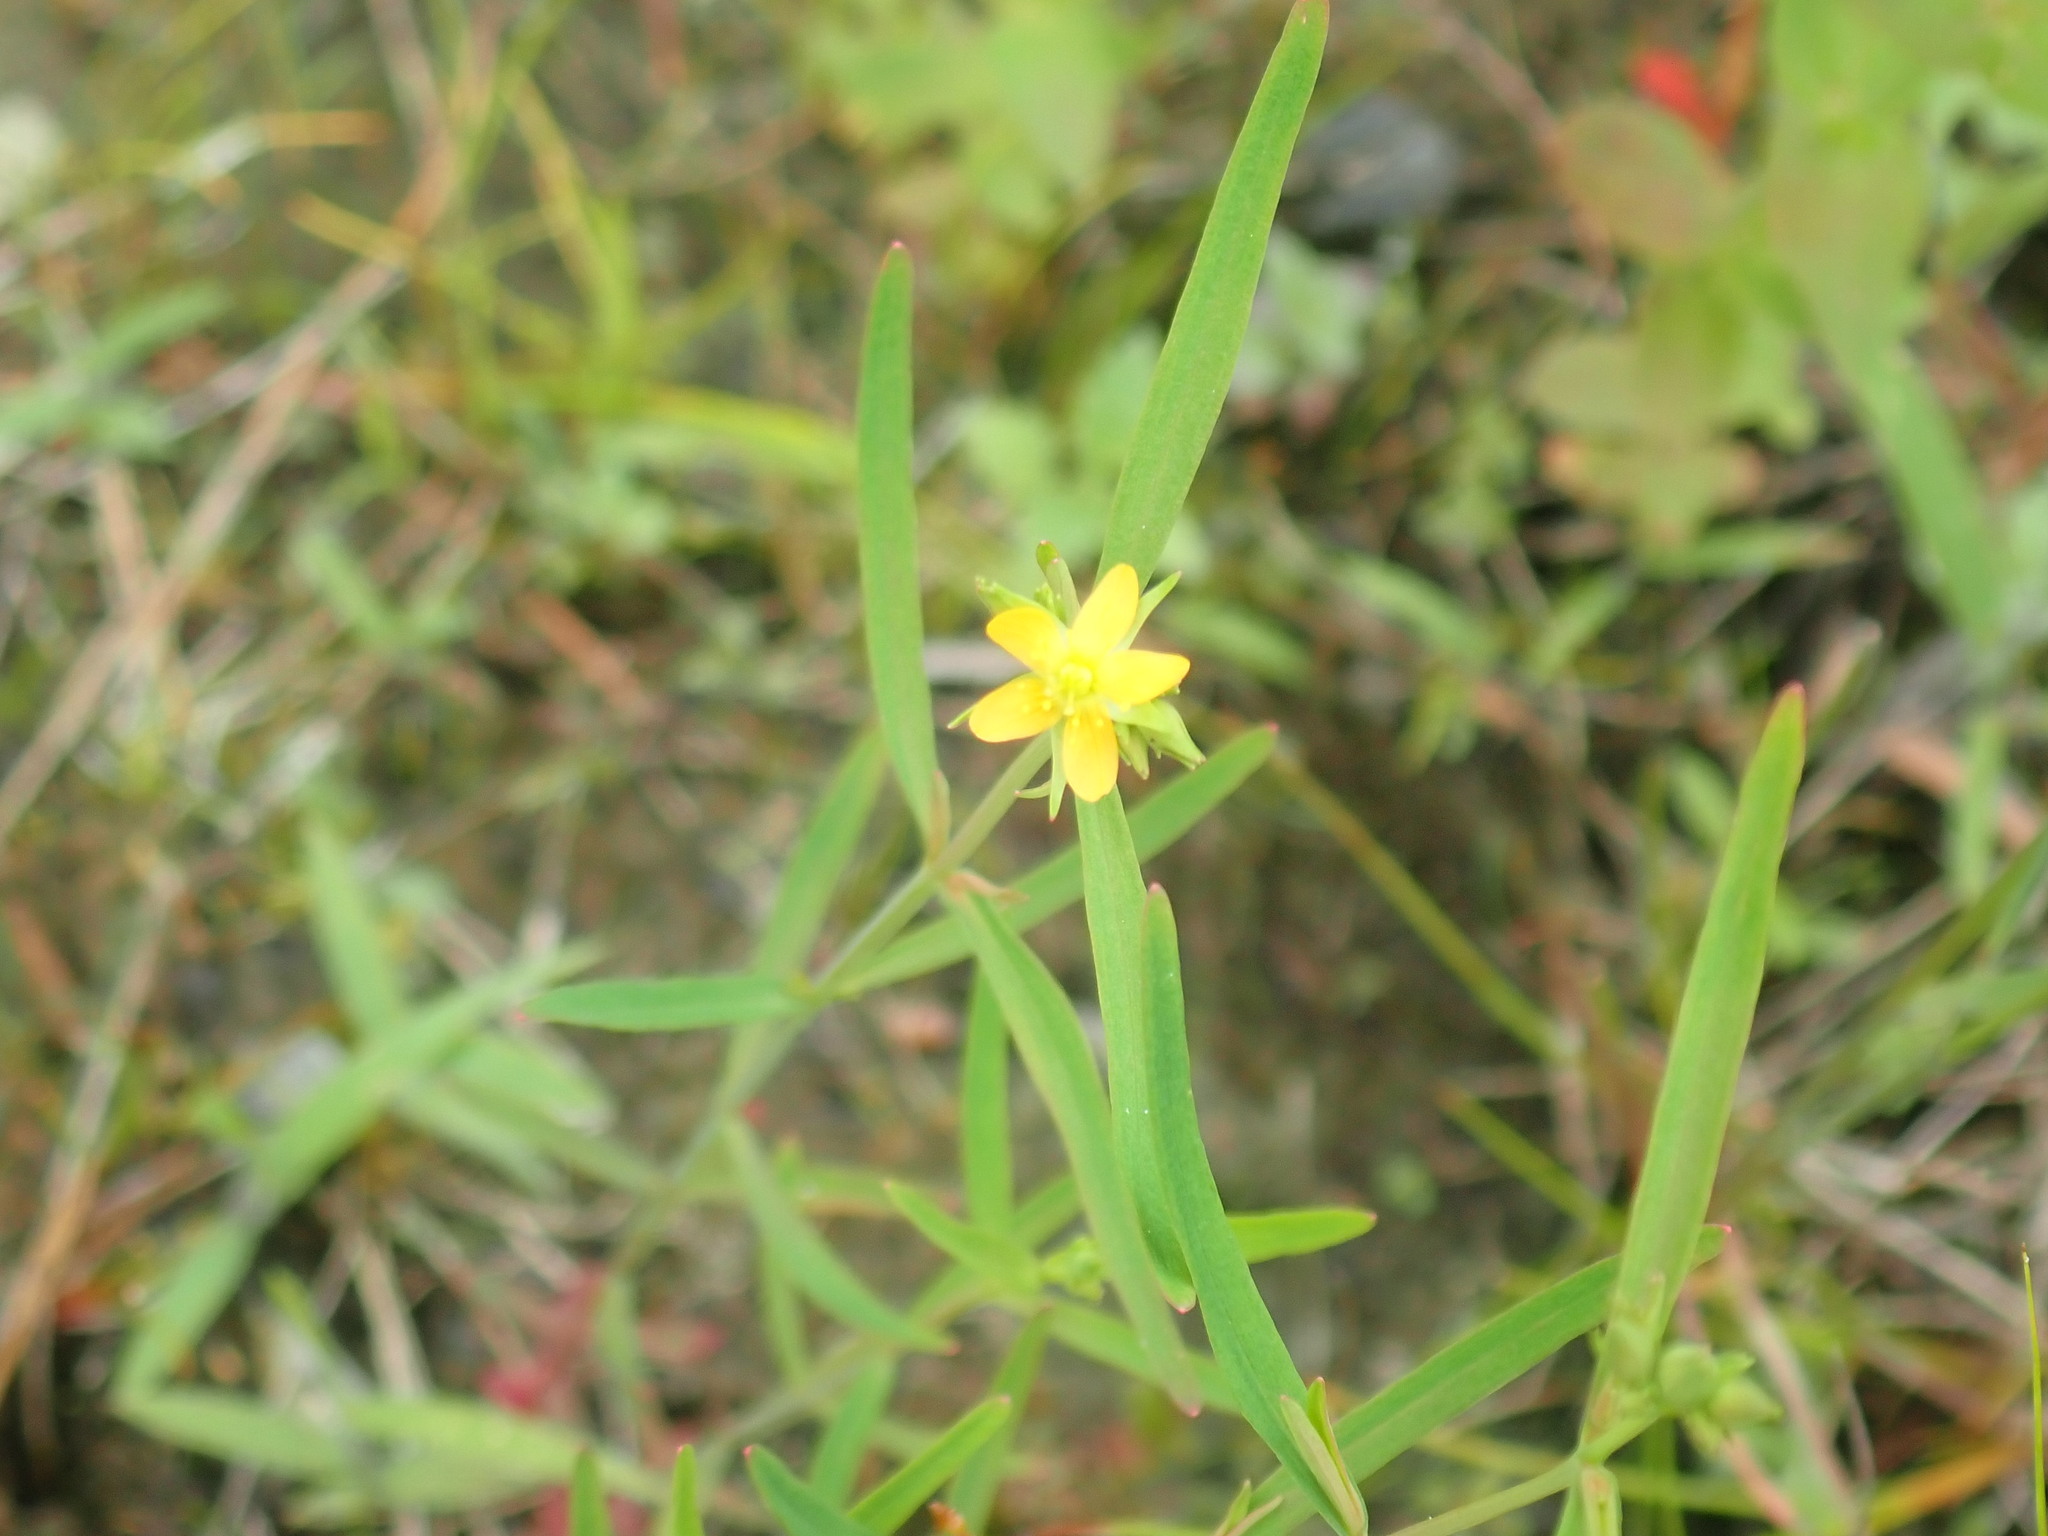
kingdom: Plantae
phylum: Tracheophyta
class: Magnoliopsida
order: Malpighiales
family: Hypericaceae
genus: Hypericum
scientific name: Hypericum canadense
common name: Irish st. john's-wort
